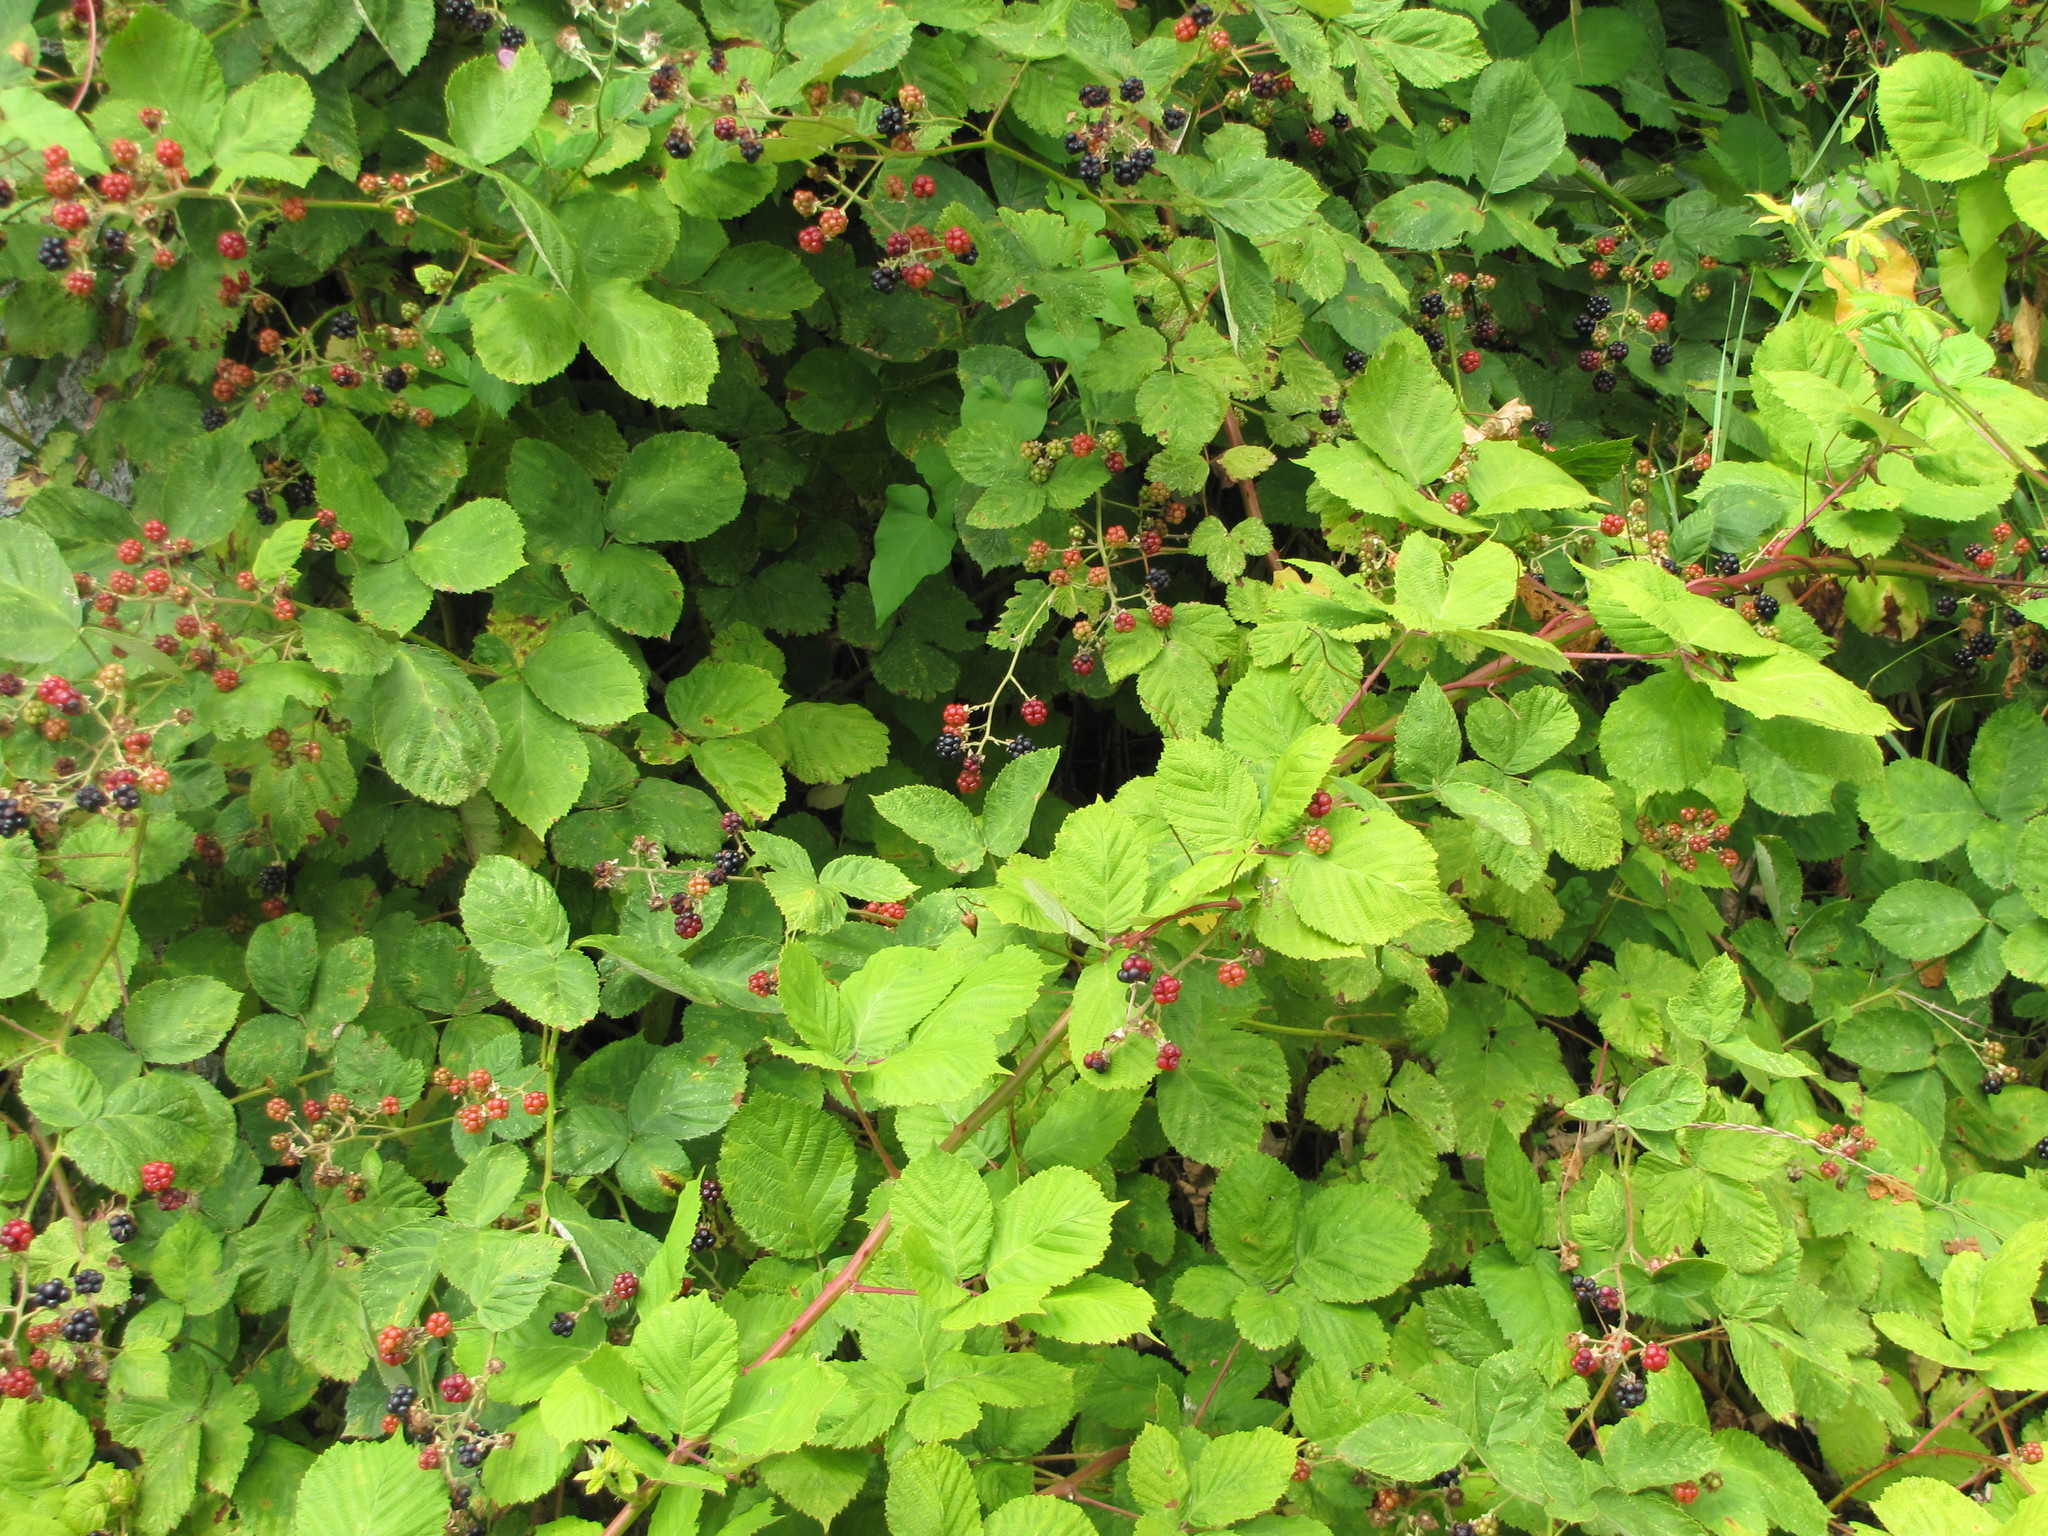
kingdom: Plantae
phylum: Tracheophyta
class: Magnoliopsida
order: Rosales
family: Rosaceae
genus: Rubus
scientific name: Rubus armeniacus
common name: Himalayan blackberry
